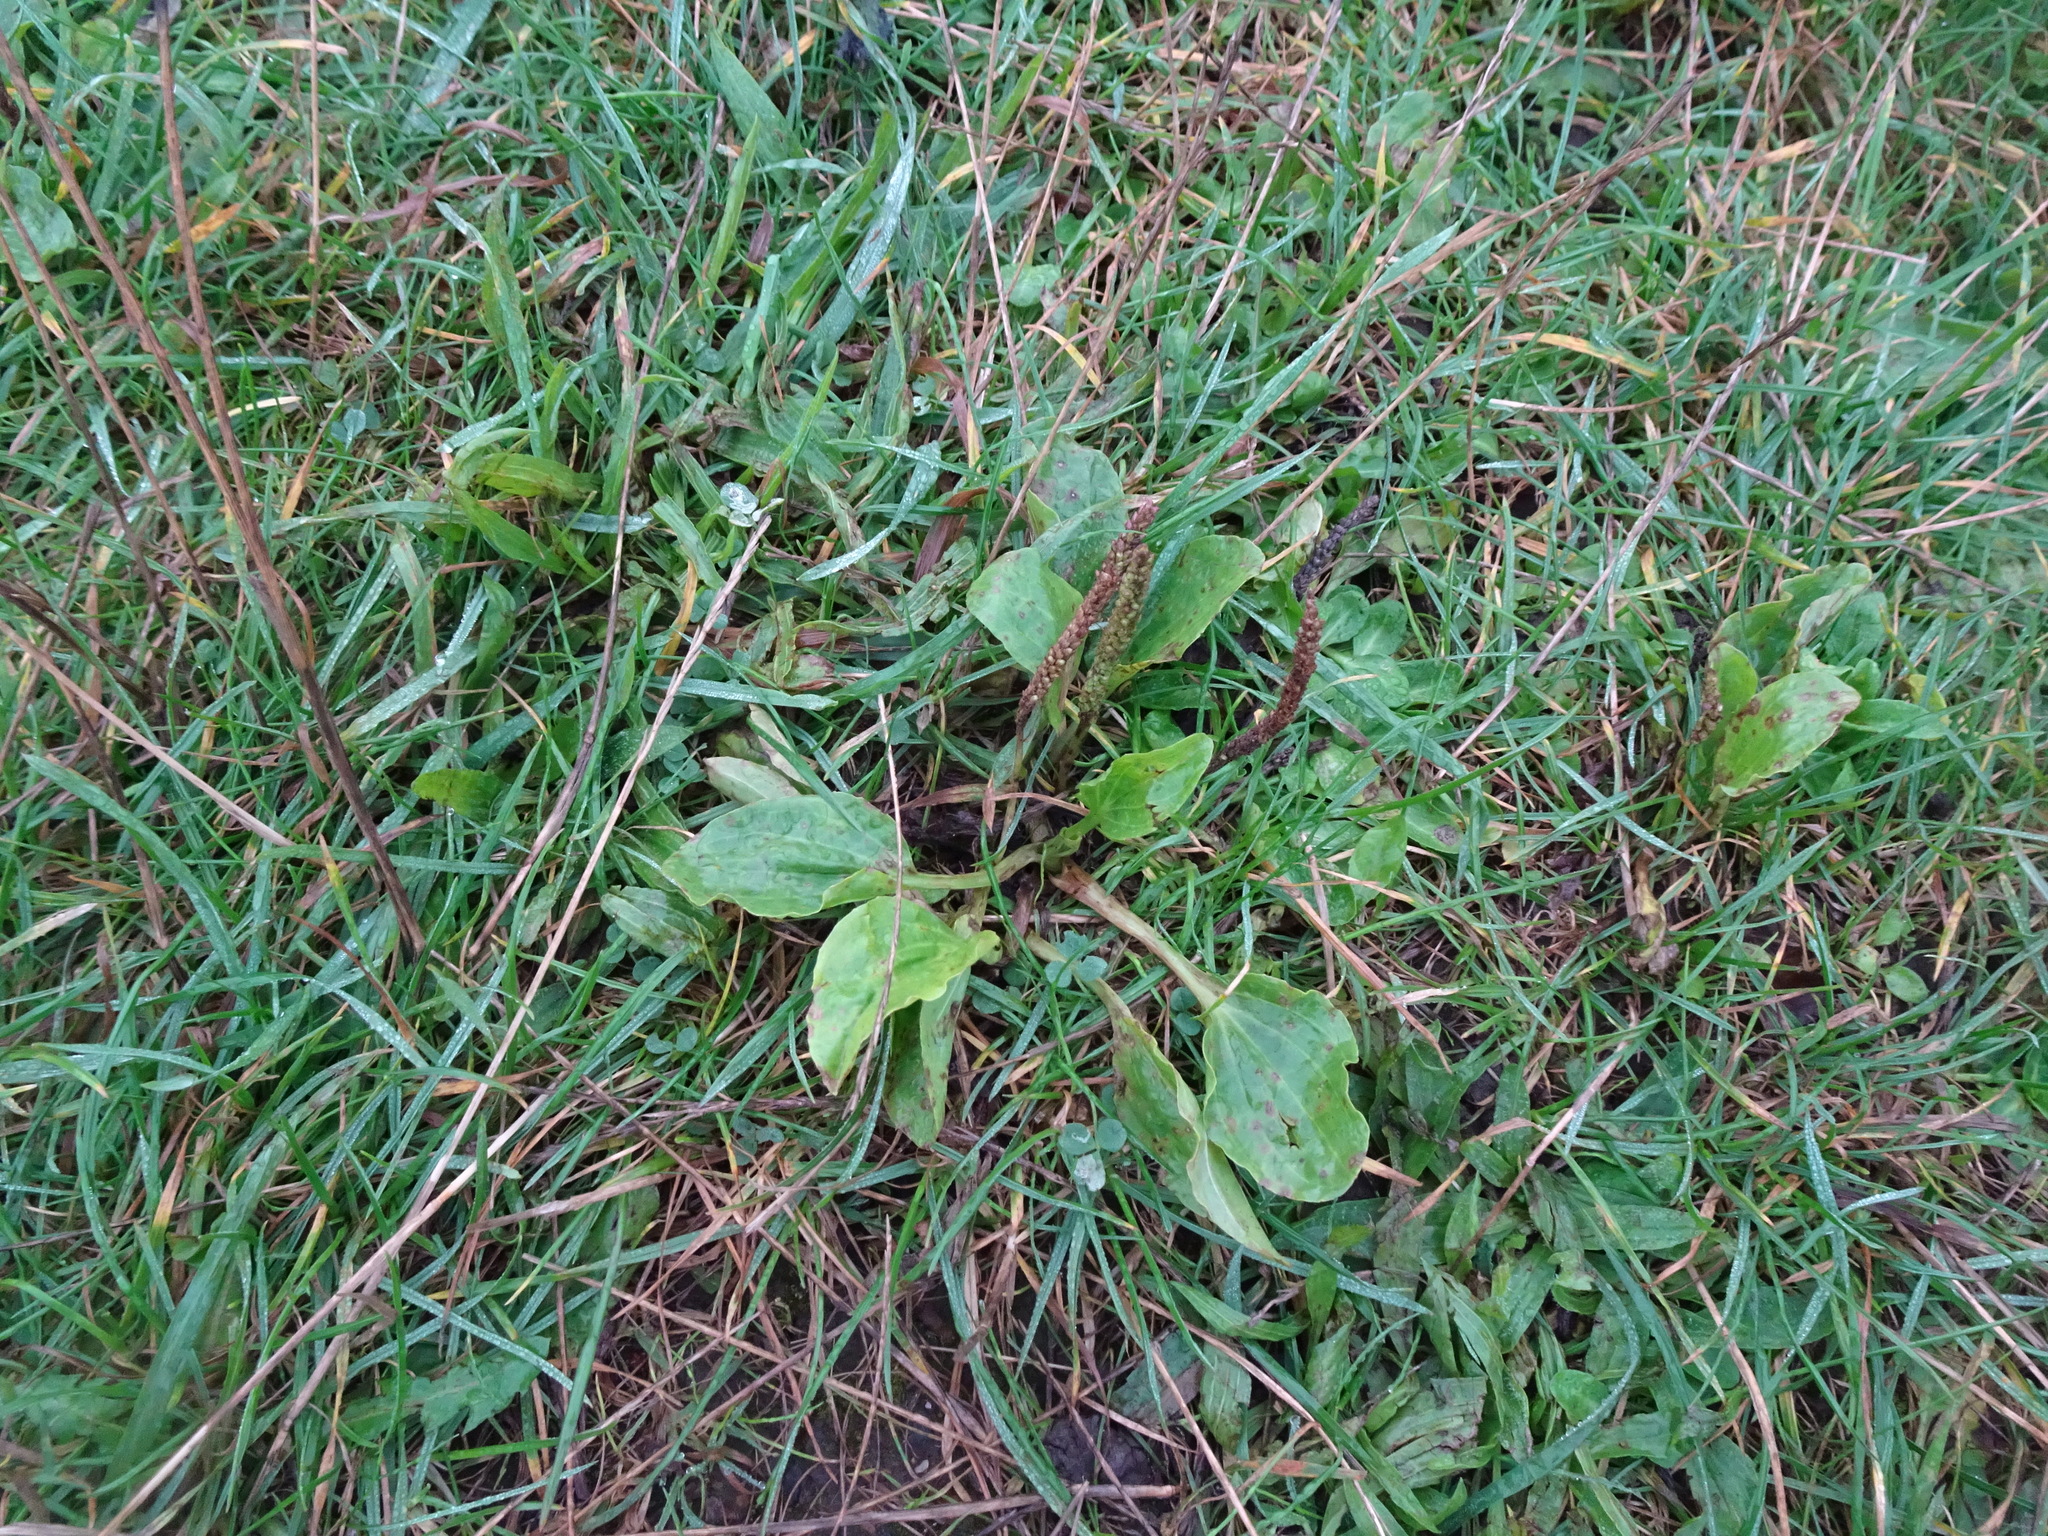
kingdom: Plantae
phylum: Tracheophyta
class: Magnoliopsida
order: Lamiales
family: Plantaginaceae
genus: Plantago
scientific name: Plantago major
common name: Common plantain
